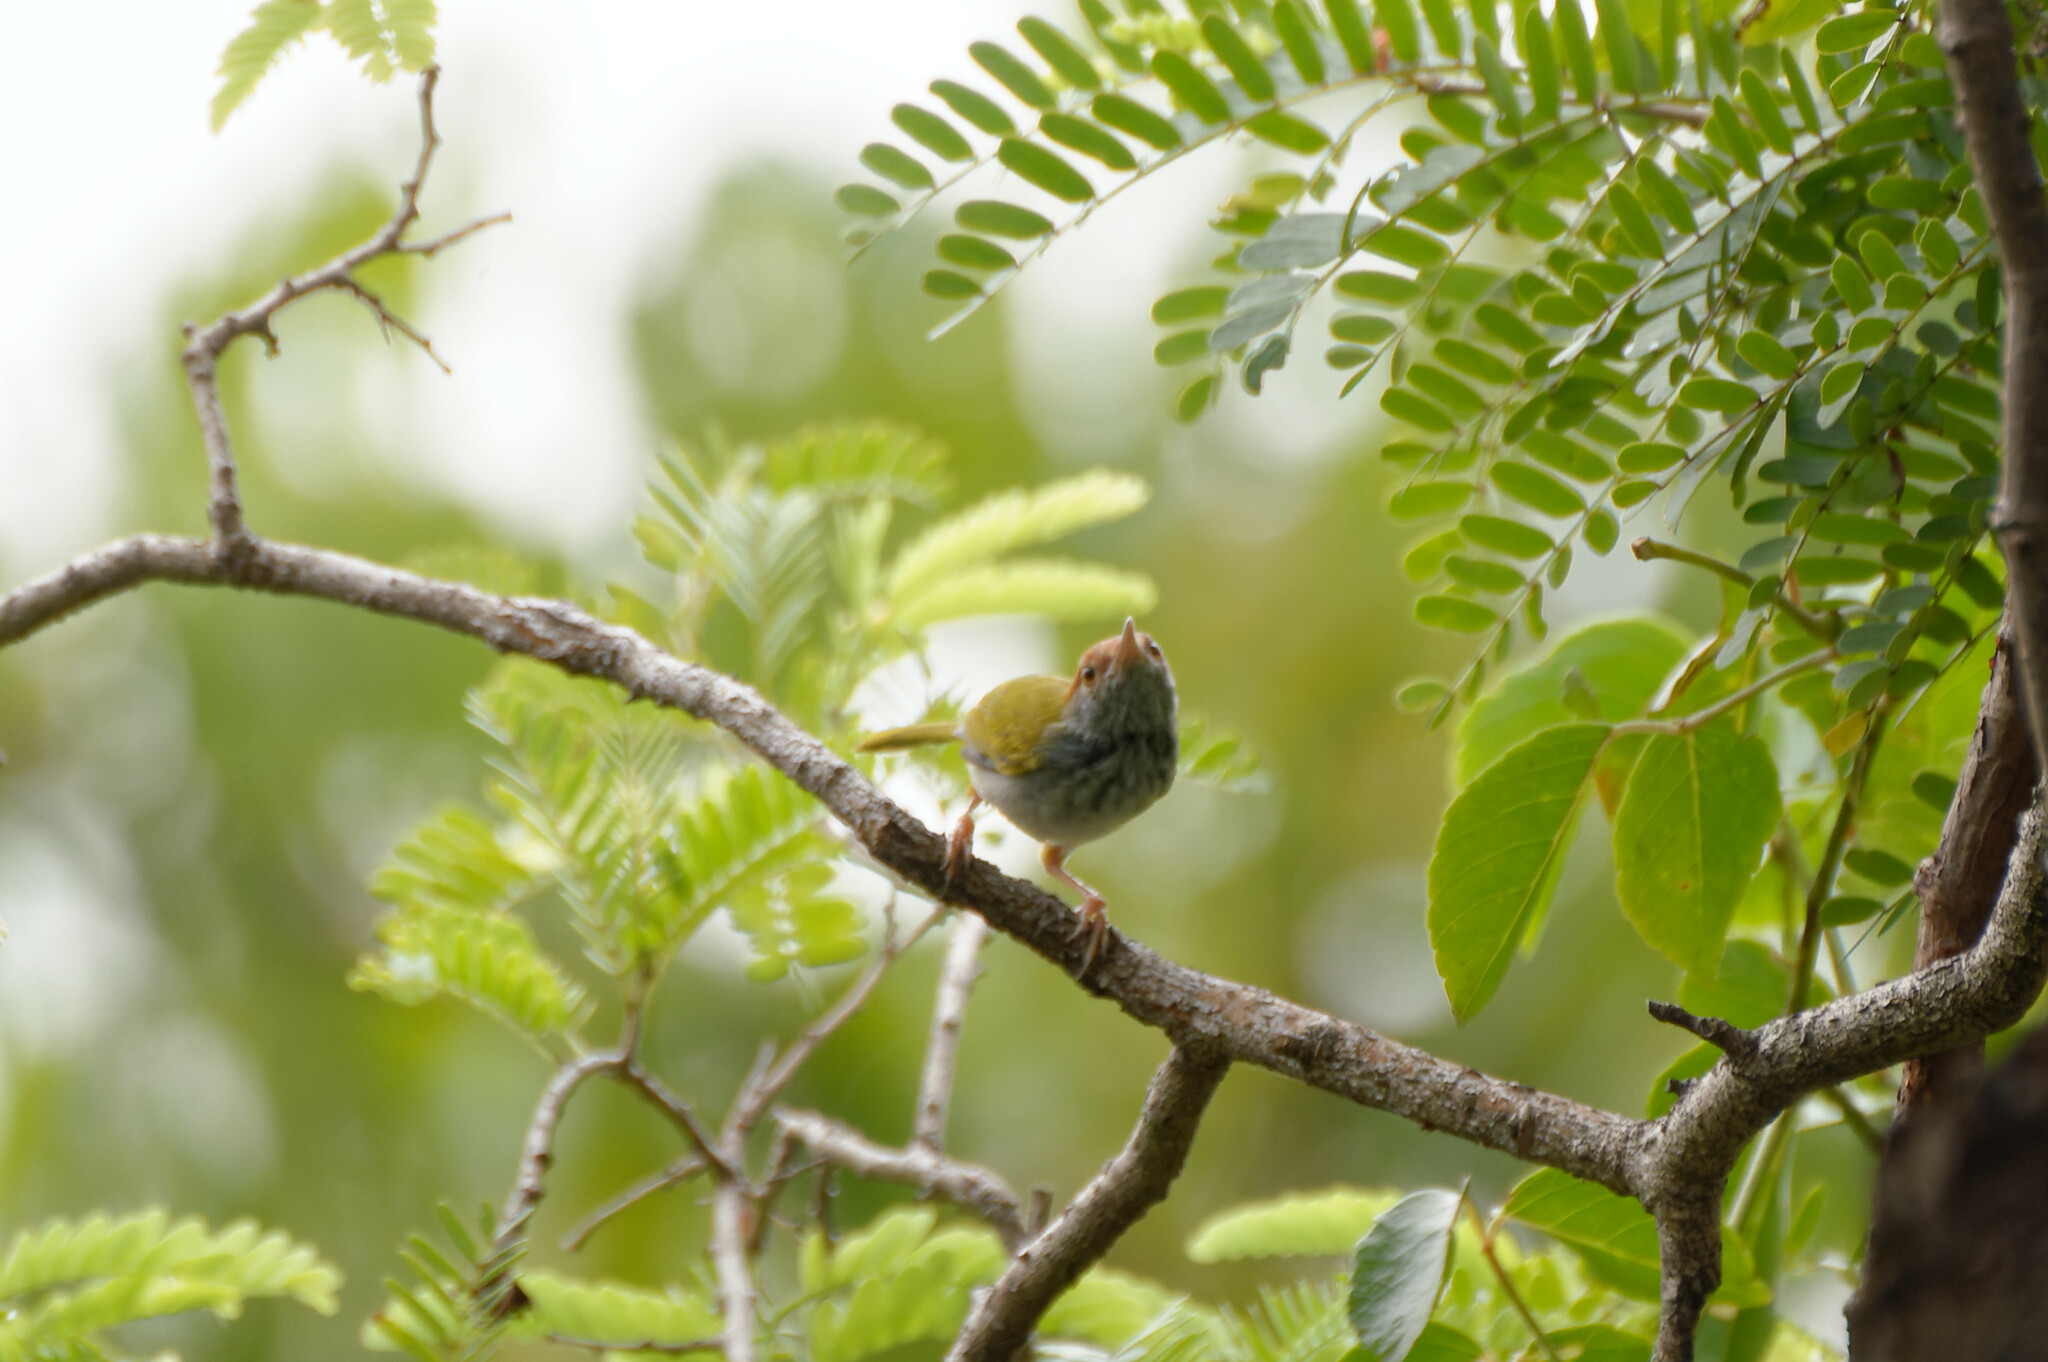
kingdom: Animalia
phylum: Chordata
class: Aves
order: Passeriformes
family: Cisticolidae
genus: Orthotomus
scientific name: Orthotomus atrogularis
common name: Dark-necked tailorbird
